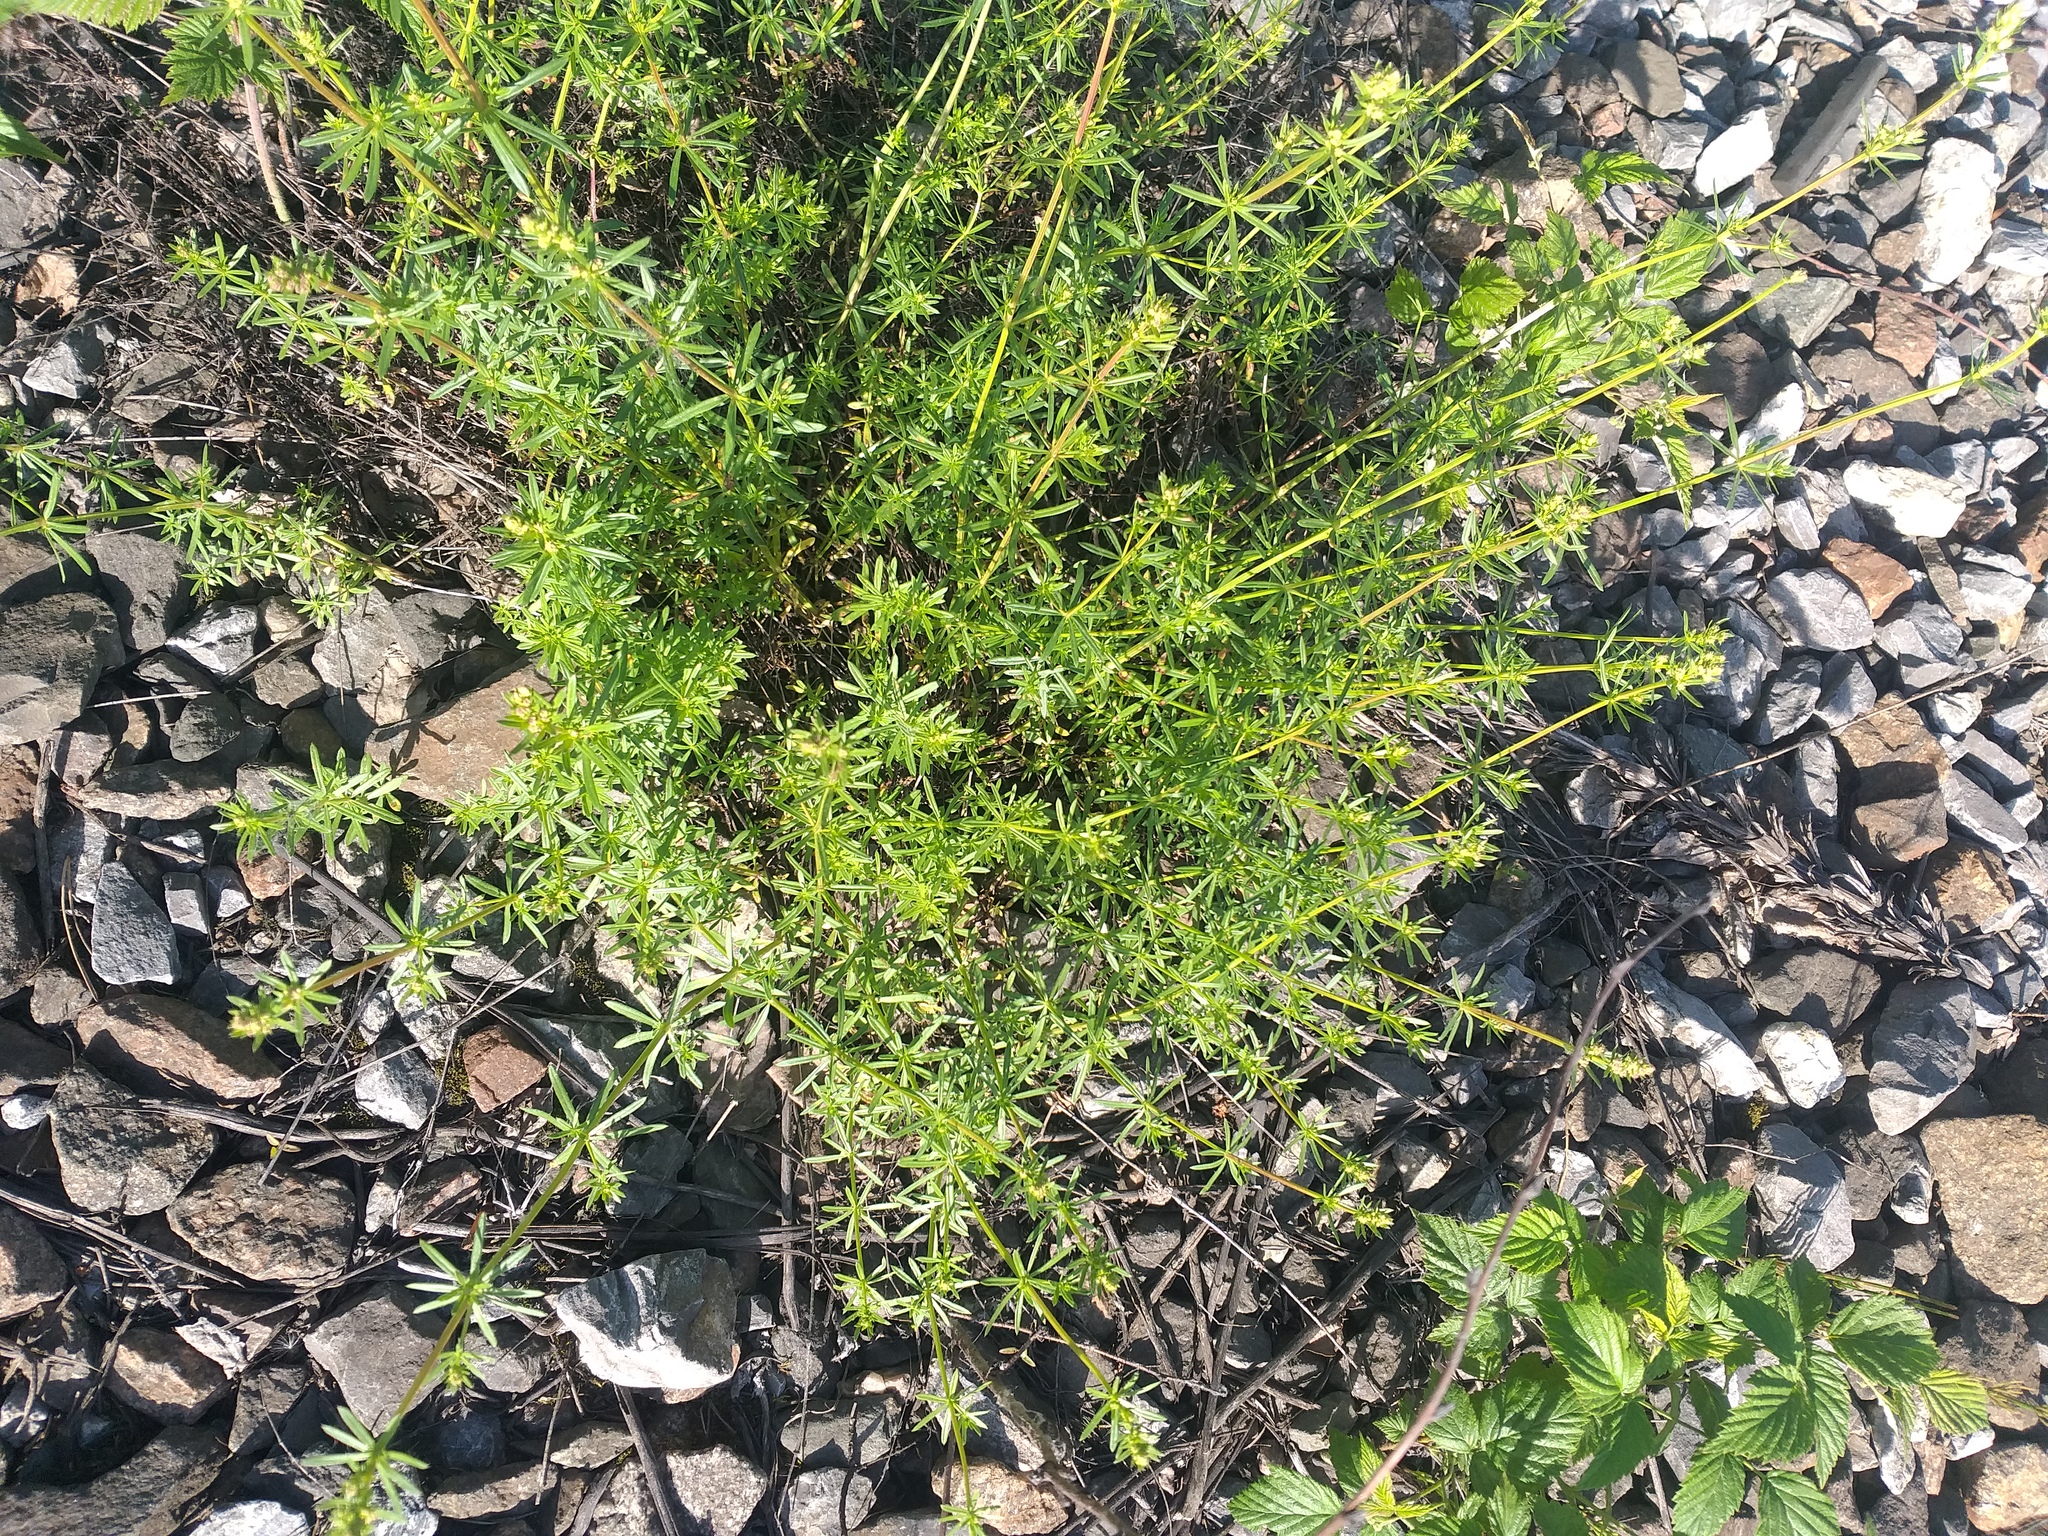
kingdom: Plantae
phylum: Tracheophyta
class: Magnoliopsida
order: Gentianales
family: Rubiaceae
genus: Galium
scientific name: Galium mollugo
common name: Hedge bedstraw
